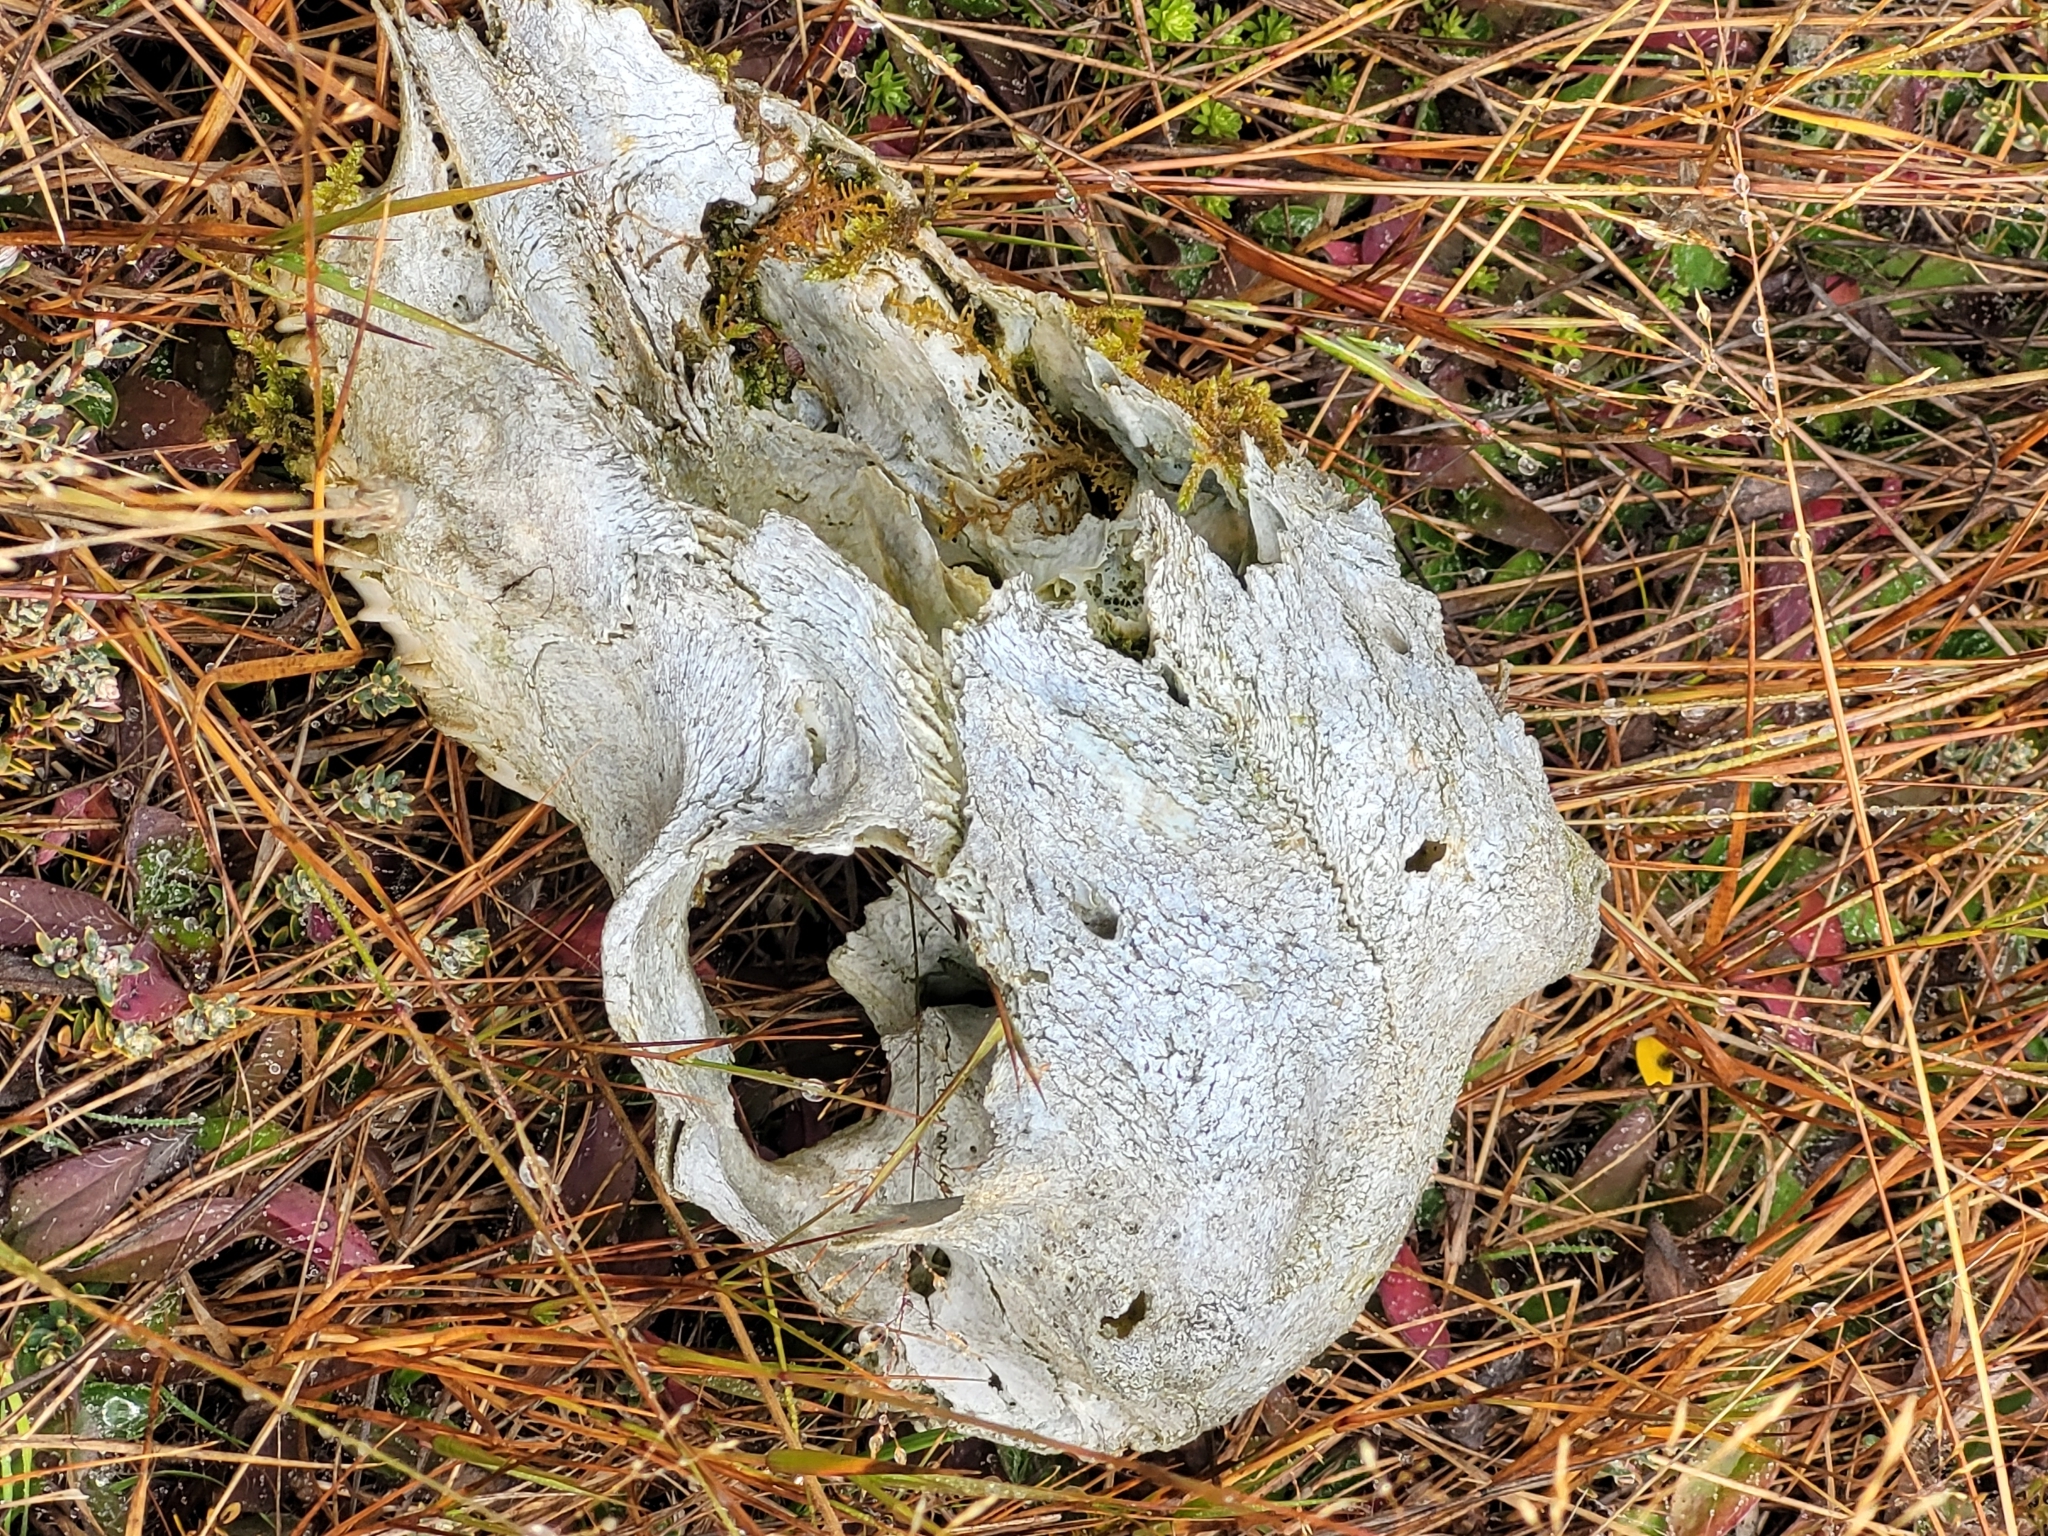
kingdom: Animalia
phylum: Chordata
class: Mammalia
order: Artiodactyla
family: Bovidae
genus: Ovis
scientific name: Ovis aries
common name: Domestic sheep
